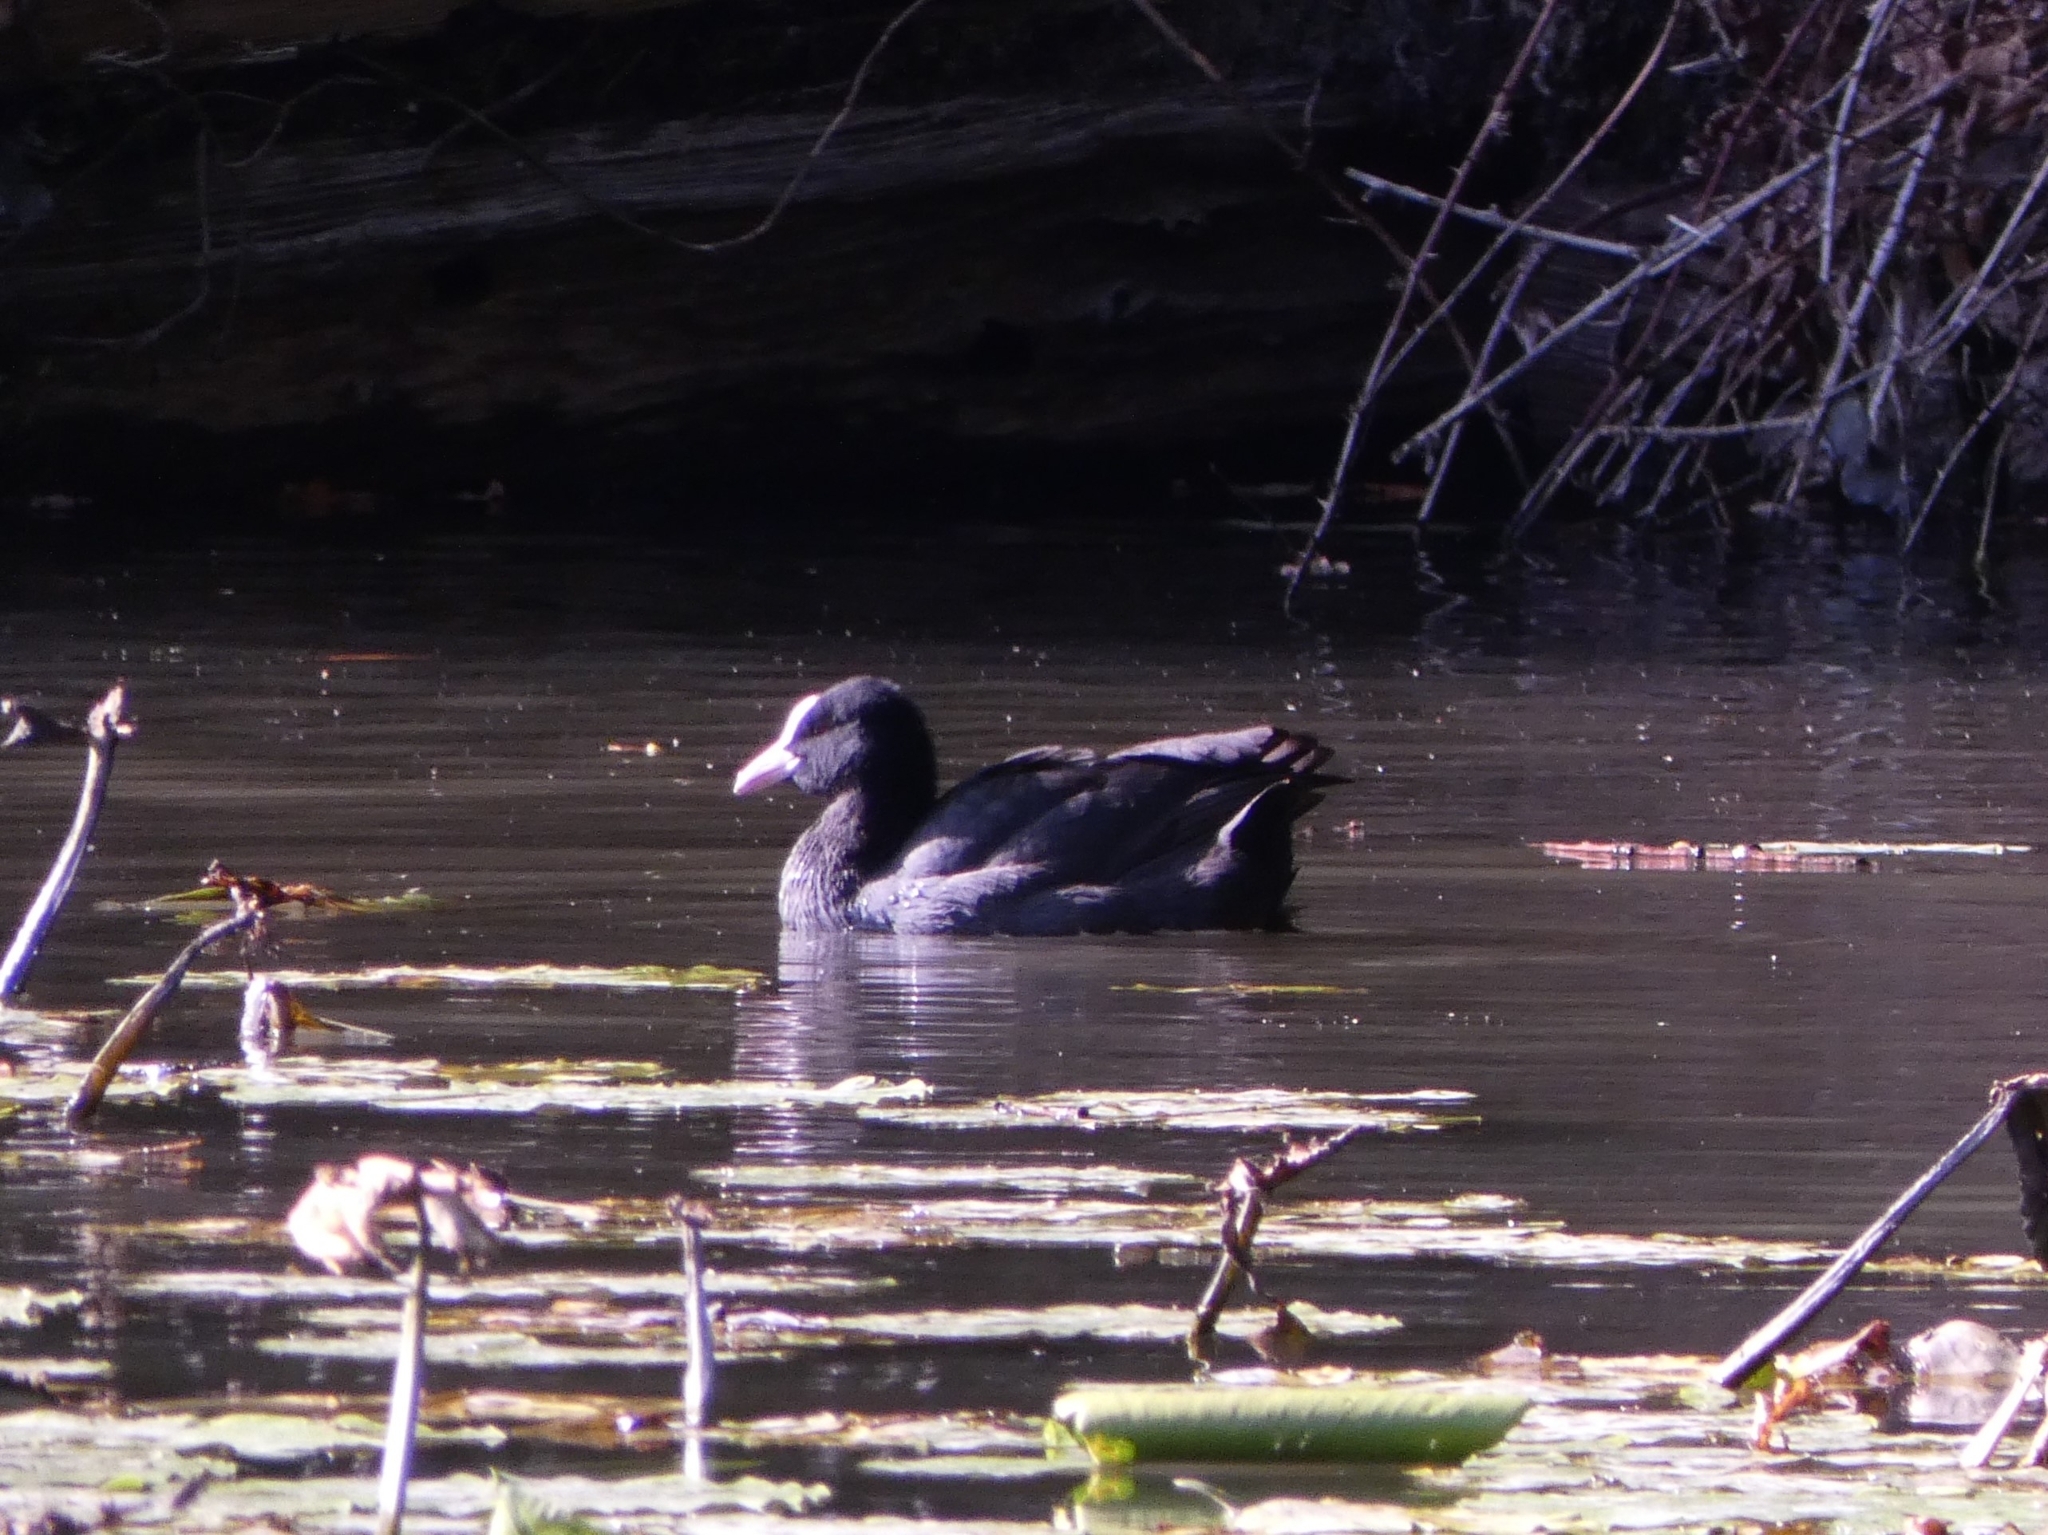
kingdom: Animalia
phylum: Chordata
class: Aves
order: Gruiformes
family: Rallidae
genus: Fulica
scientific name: Fulica atra
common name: Eurasian coot
